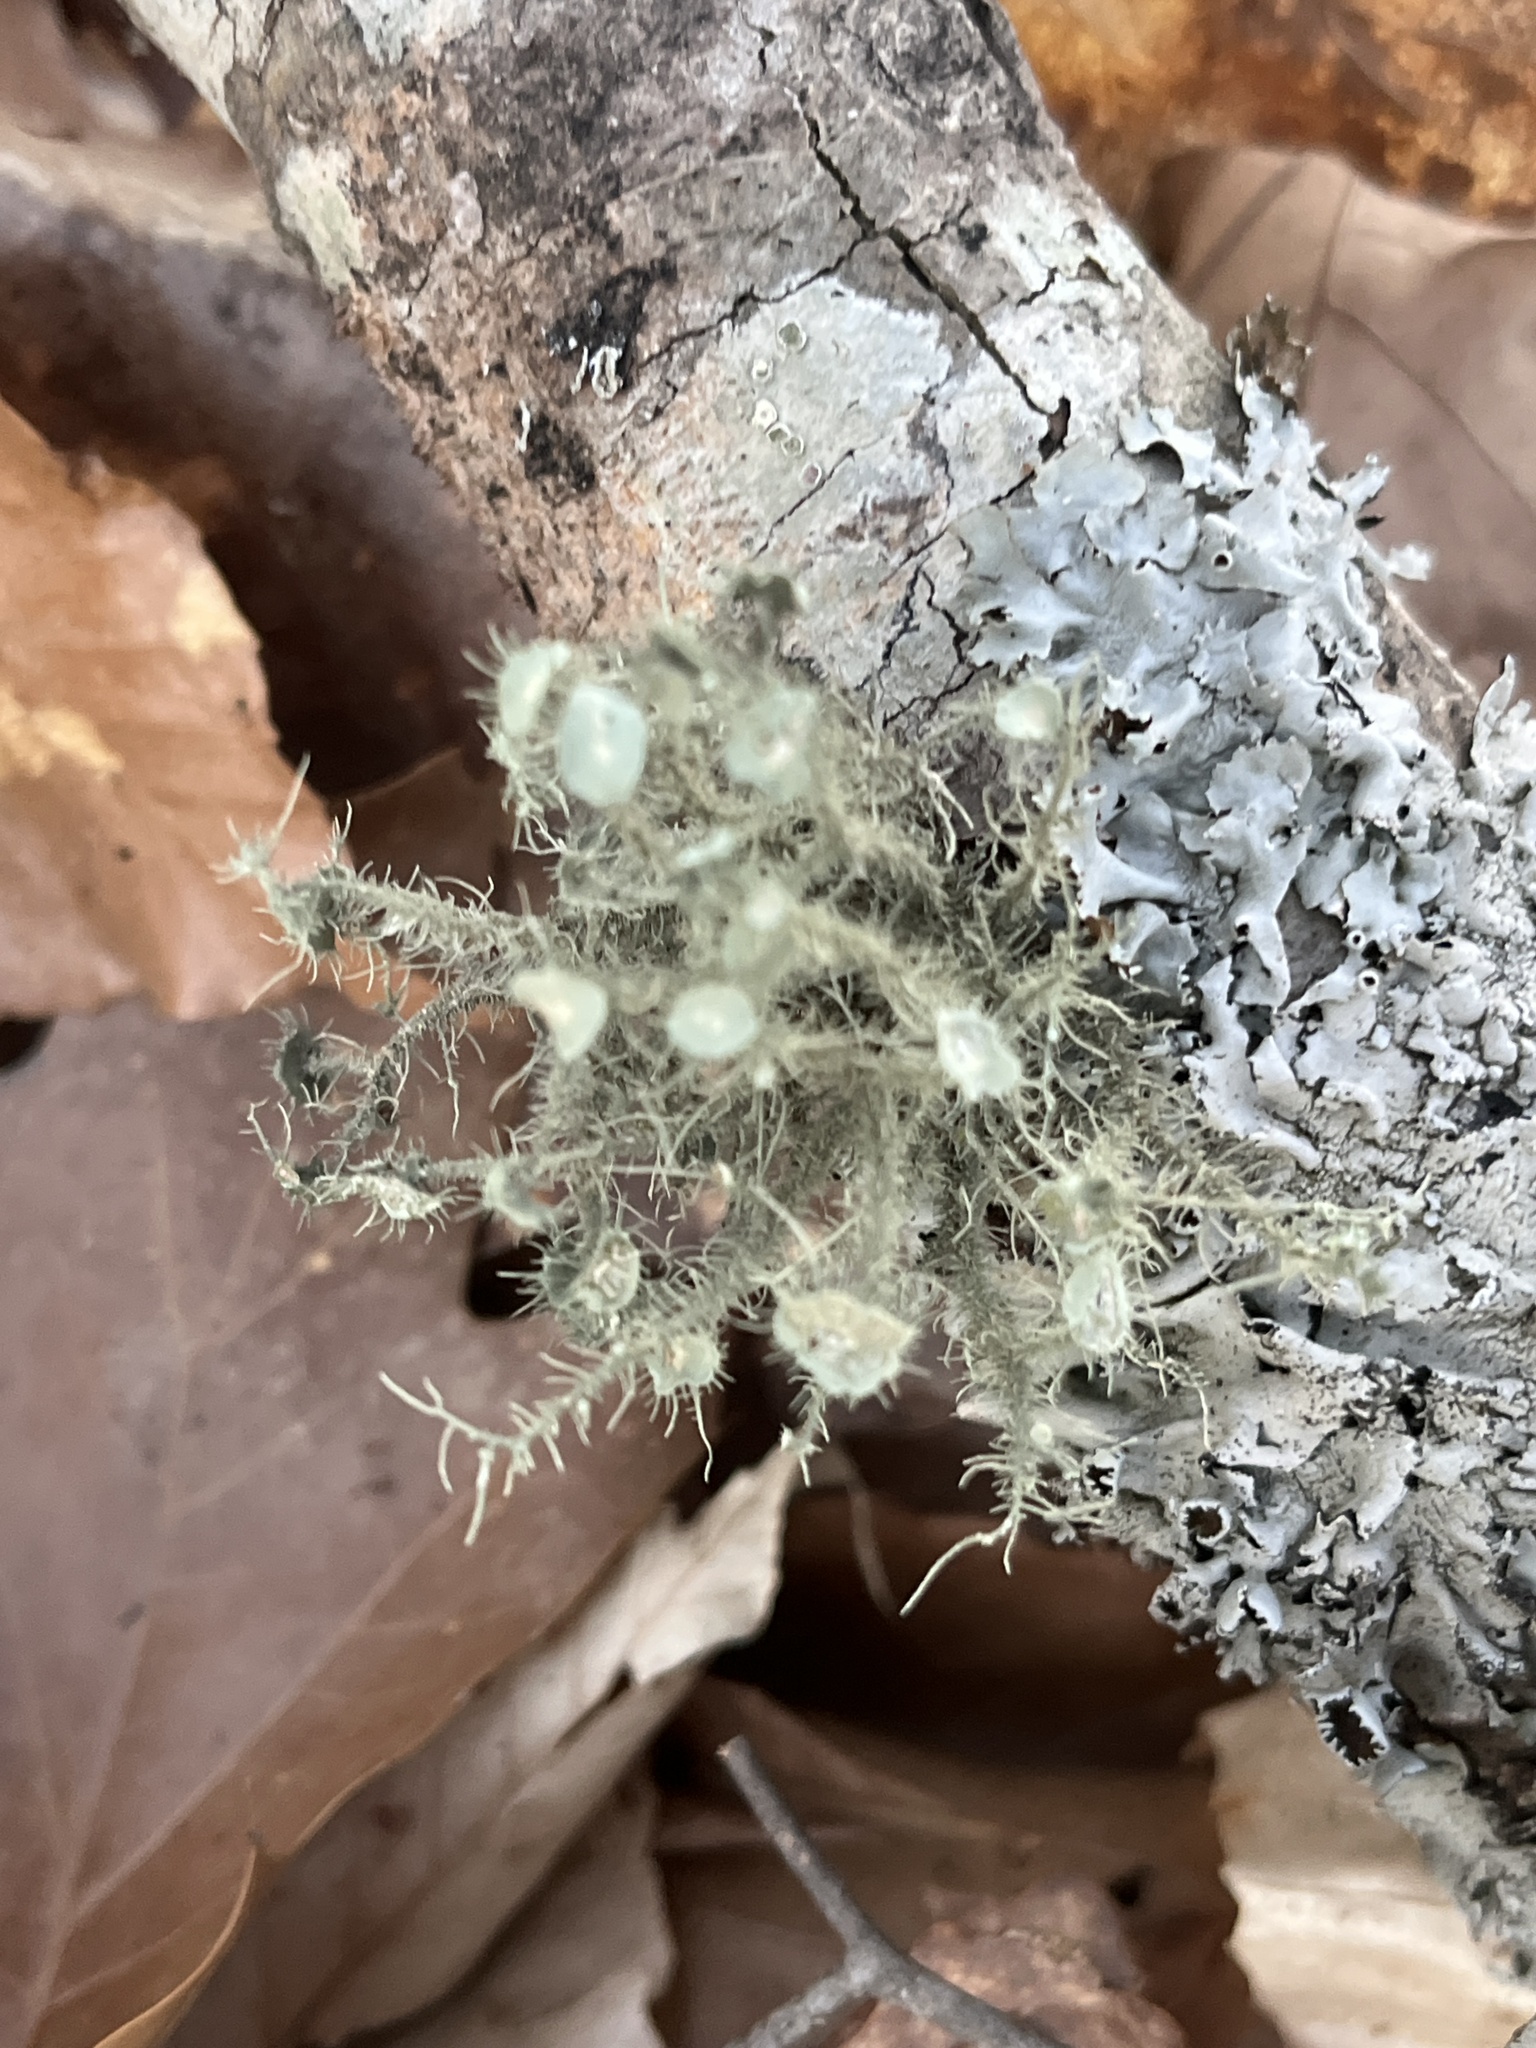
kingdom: Fungi
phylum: Ascomycota
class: Lecanoromycetes
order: Lecanorales
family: Parmeliaceae
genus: Usnea
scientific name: Usnea strigosa
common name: Bushy beard lichen
